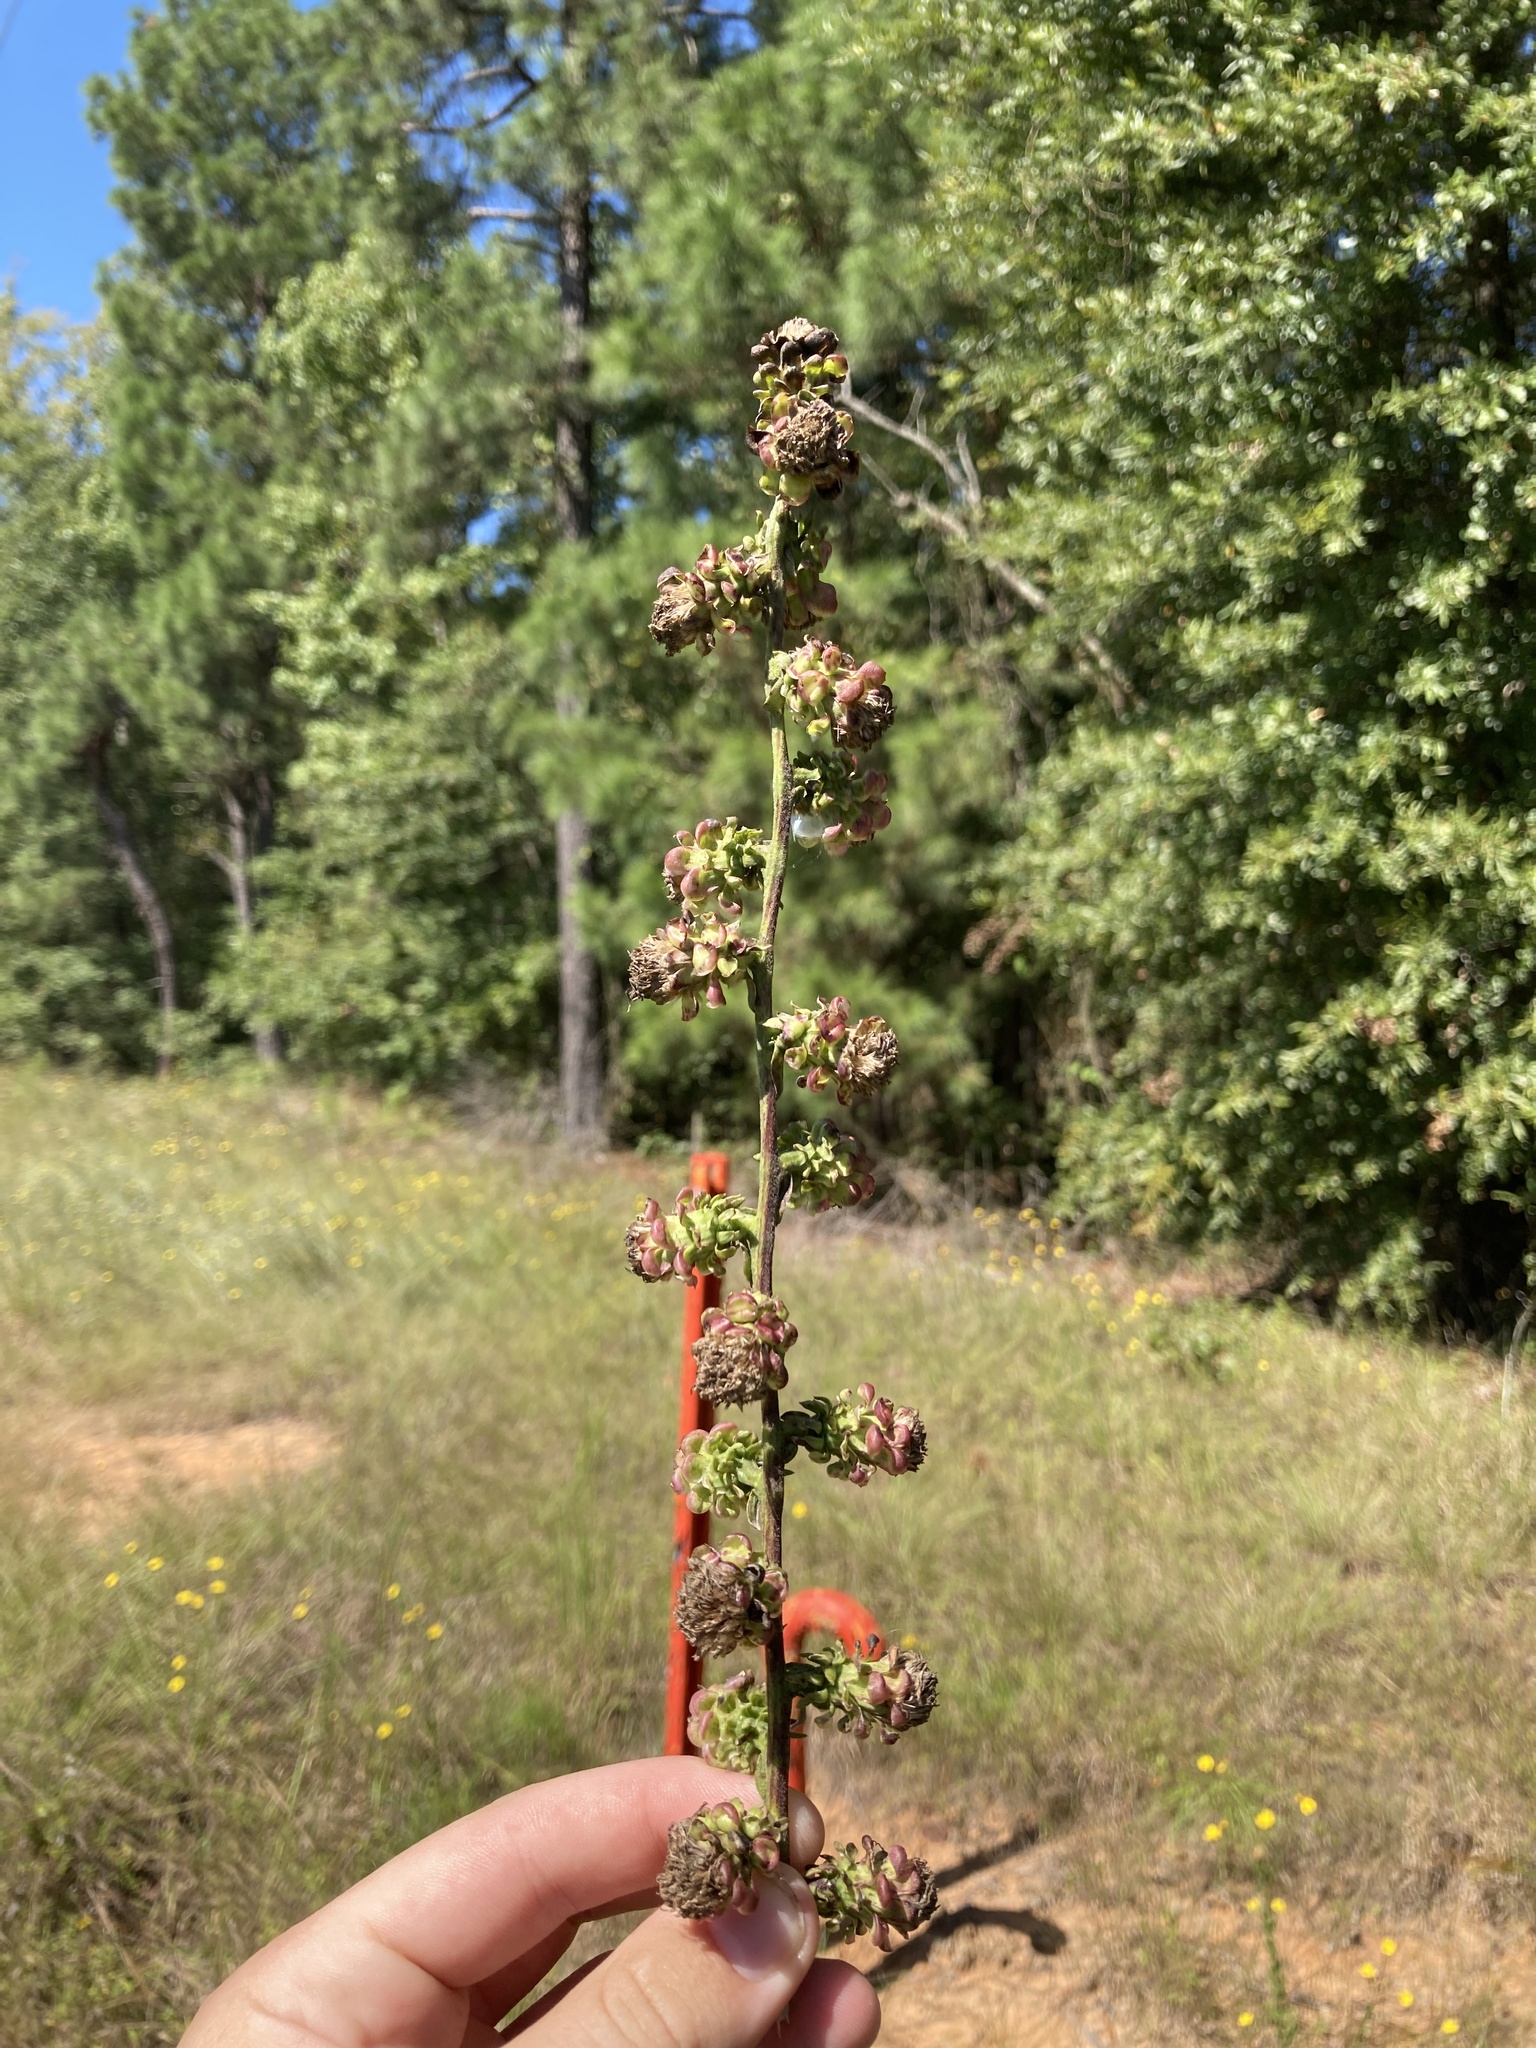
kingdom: Plantae
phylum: Tracheophyta
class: Magnoliopsida
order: Asterales
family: Asteraceae
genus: Liatris
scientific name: Liatris aspera
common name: Lacerate blazing-star
